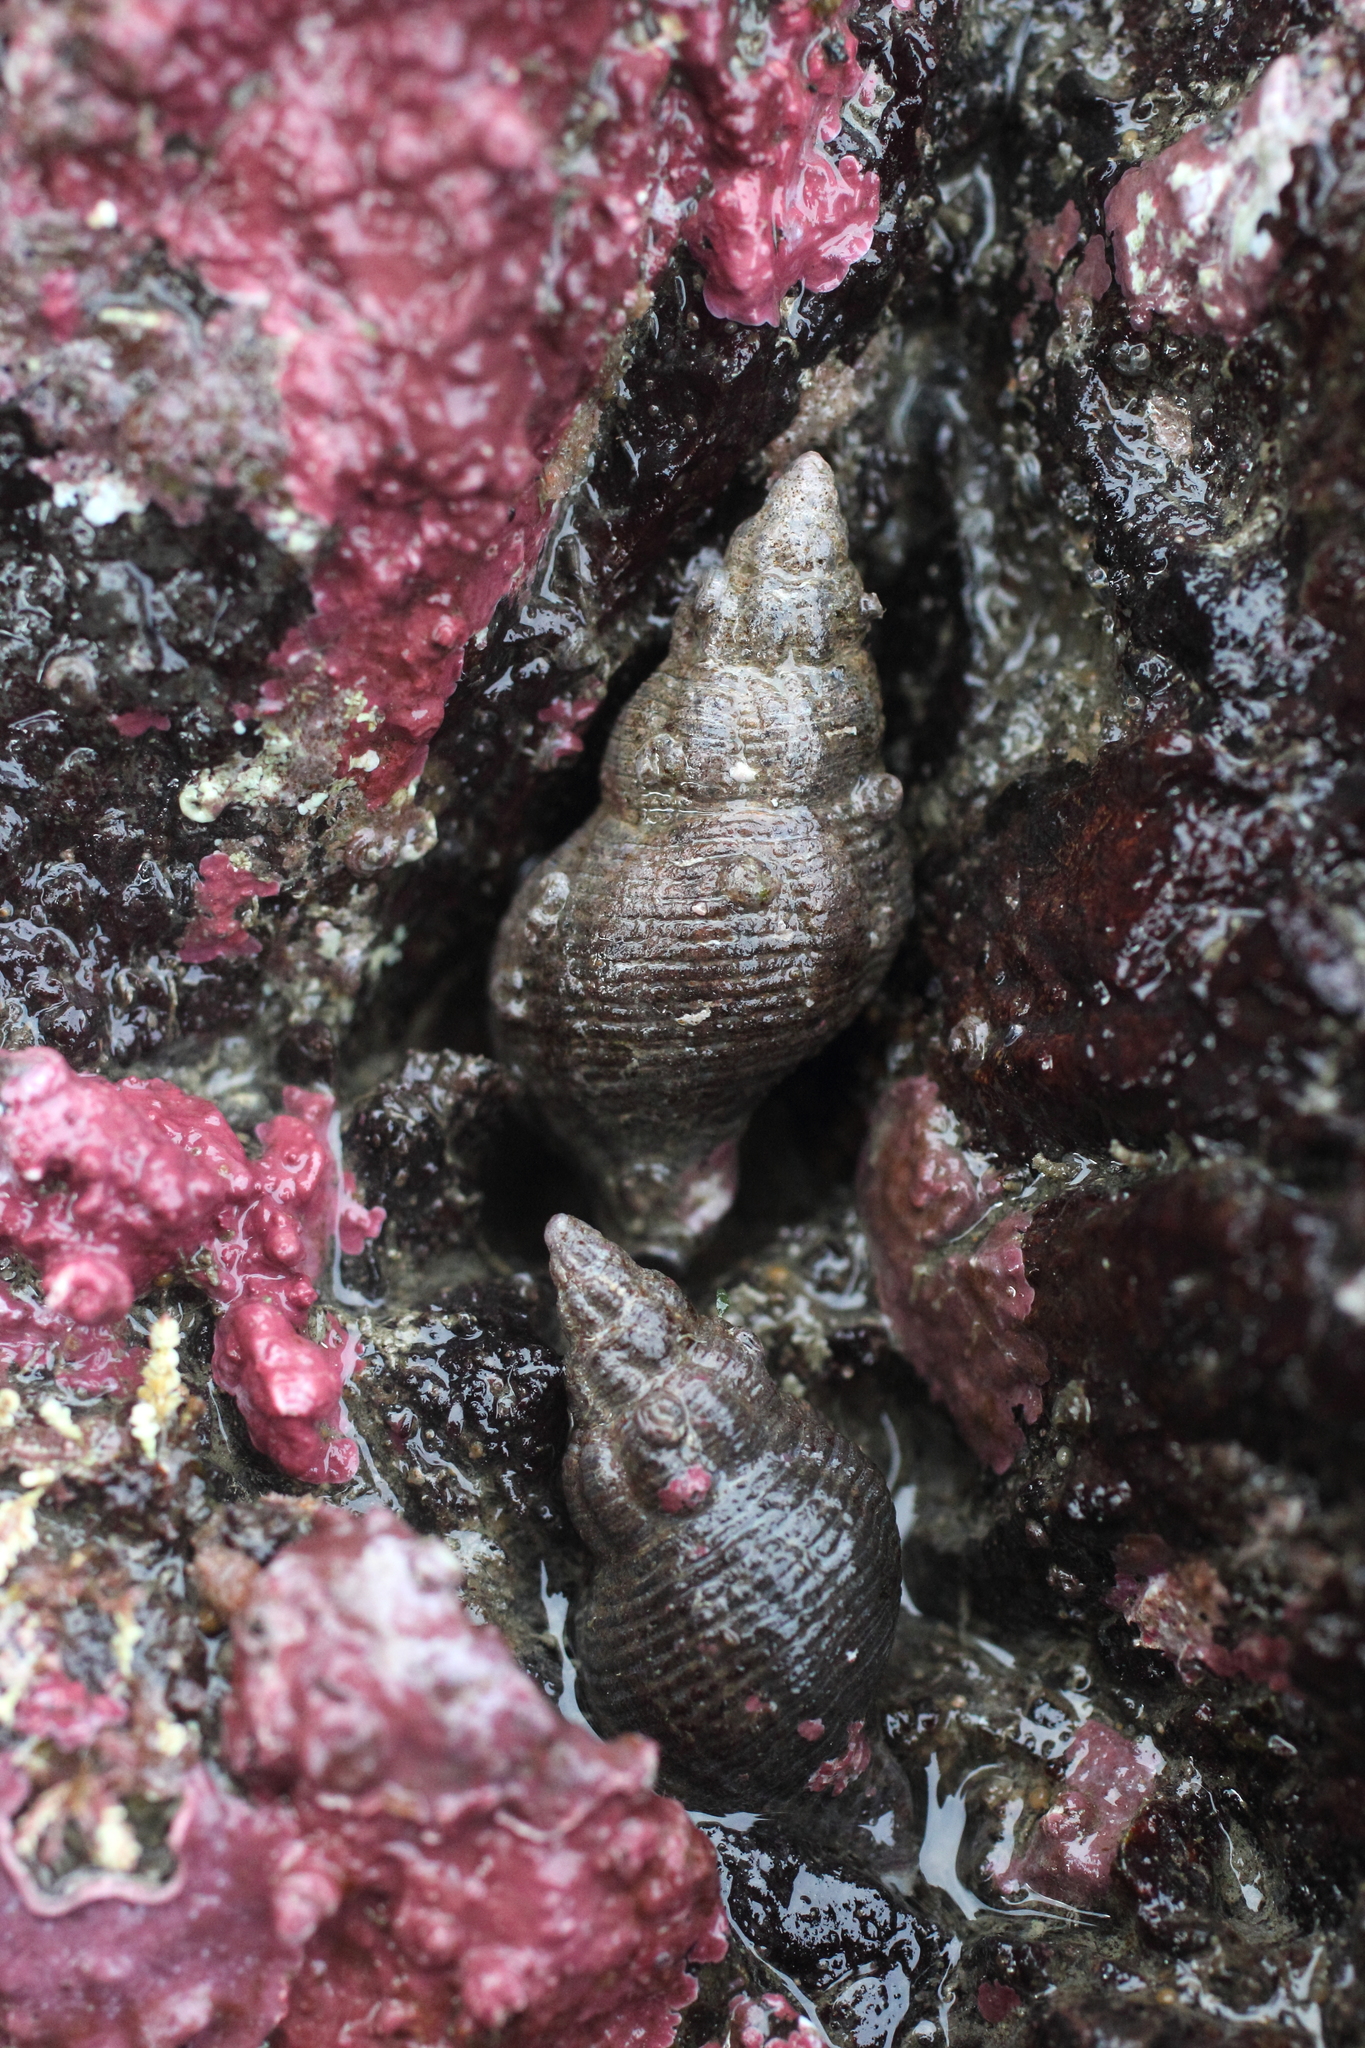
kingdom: Animalia
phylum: Mollusca
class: Gastropoda
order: Neogastropoda
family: Tudiclidae
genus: Lirabuccinum
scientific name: Lirabuccinum dirum
